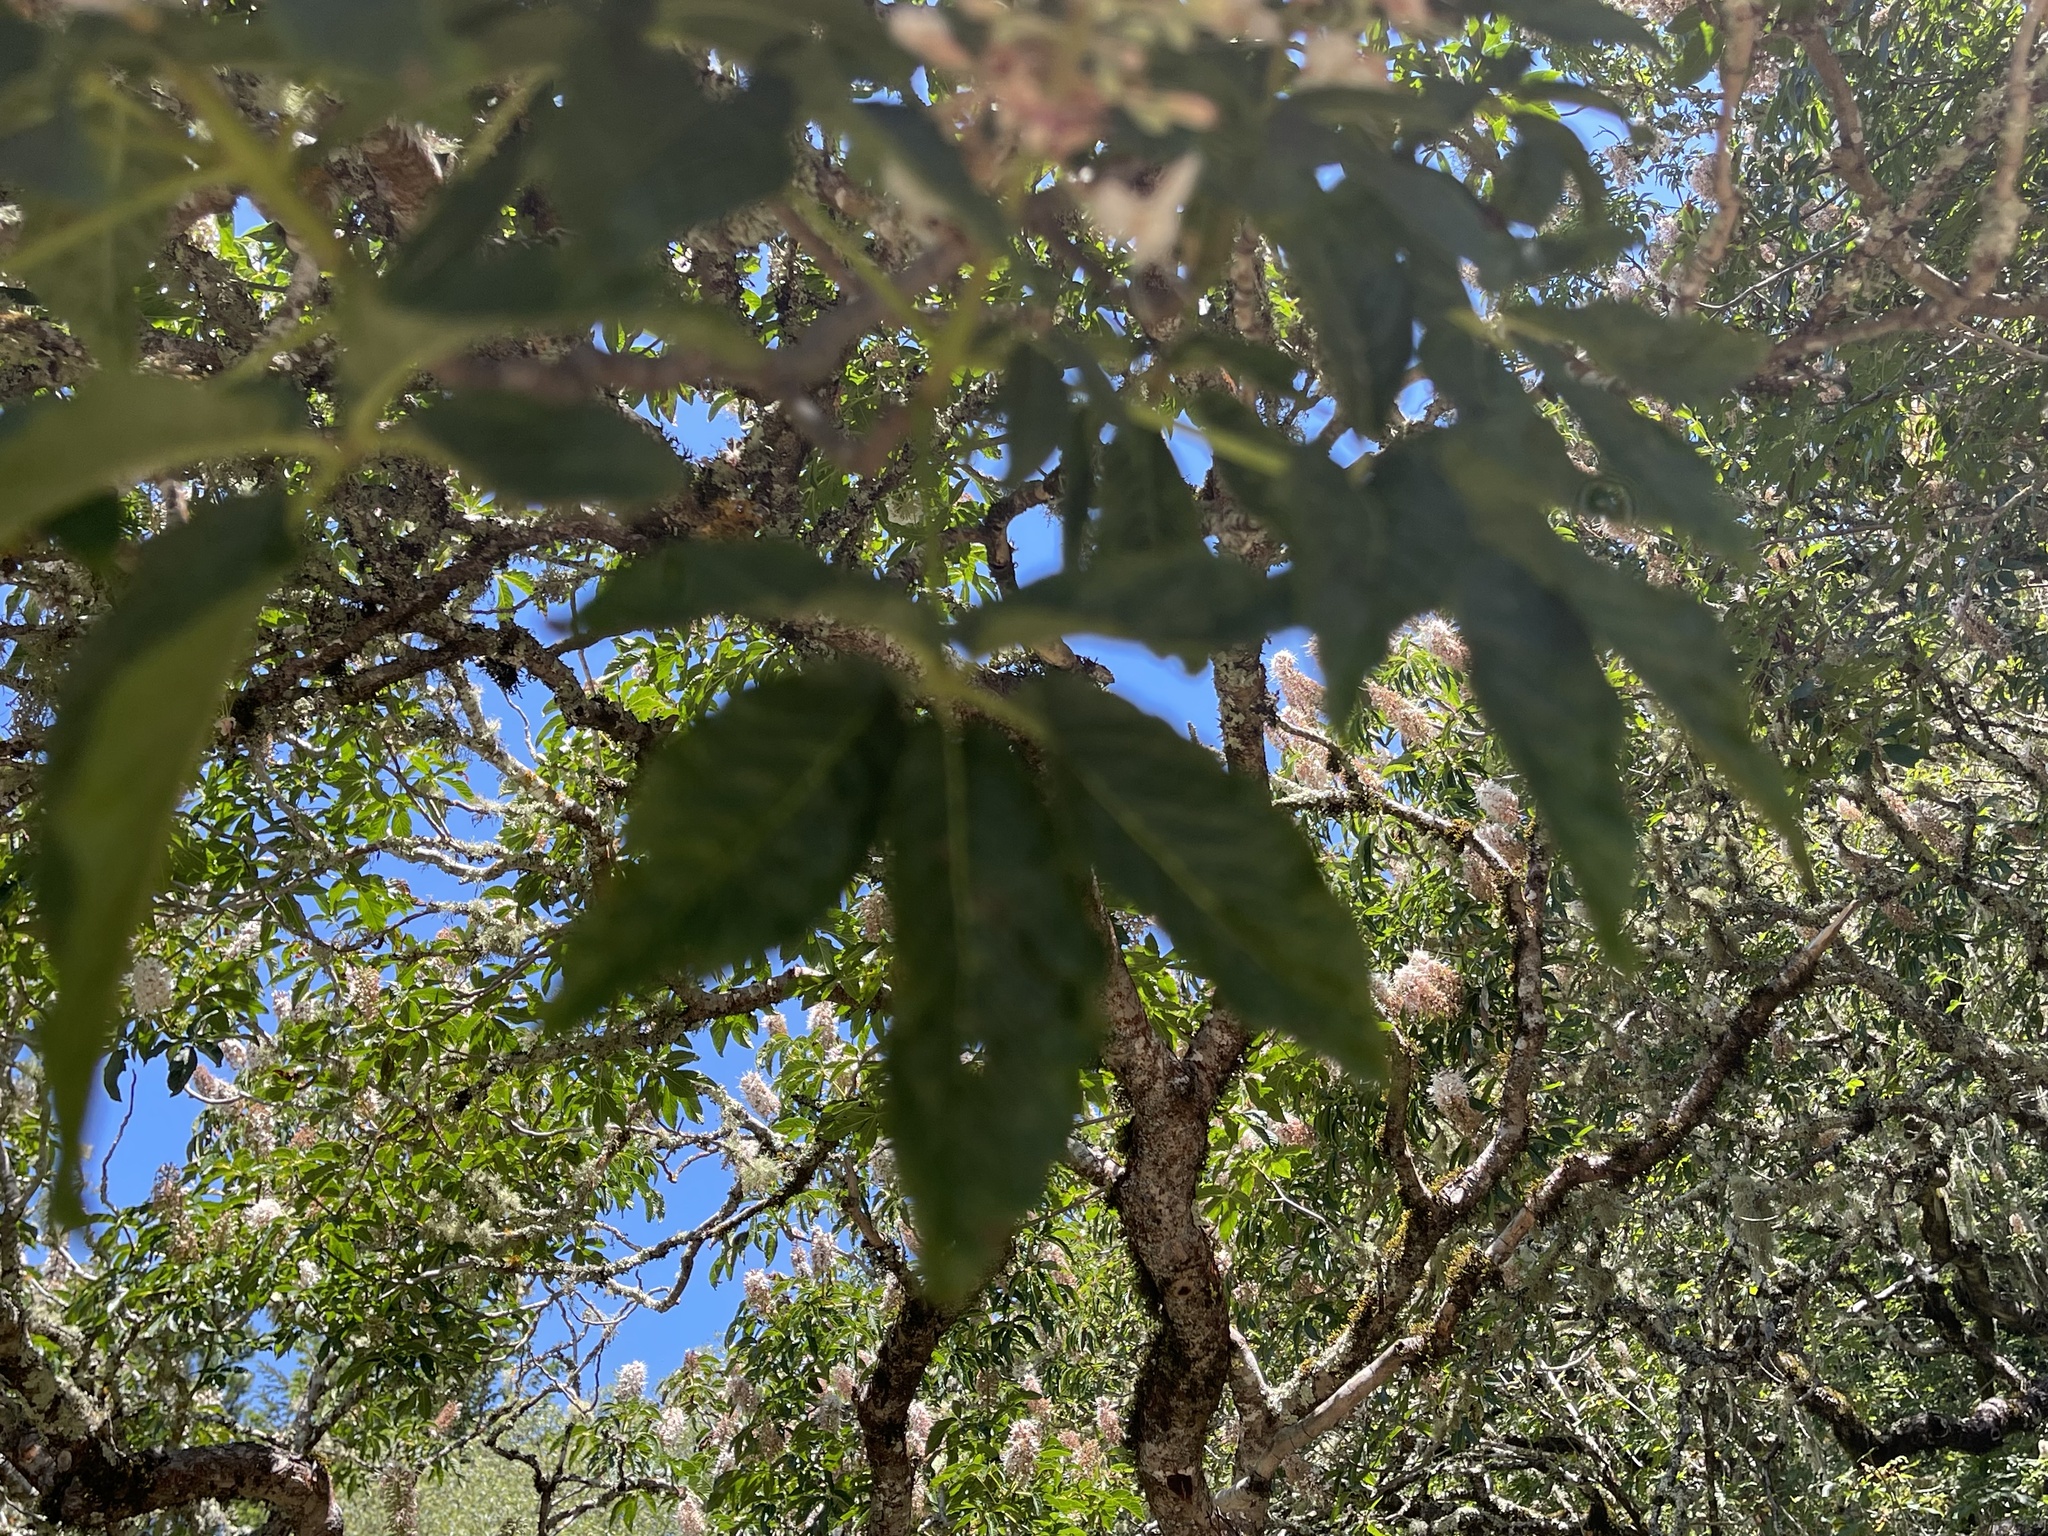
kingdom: Plantae
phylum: Tracheophyta
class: Magnoliopsida
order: Sapindales
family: Sapindaceae
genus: Aesculus
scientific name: Aesculus californica
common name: California buckeye
